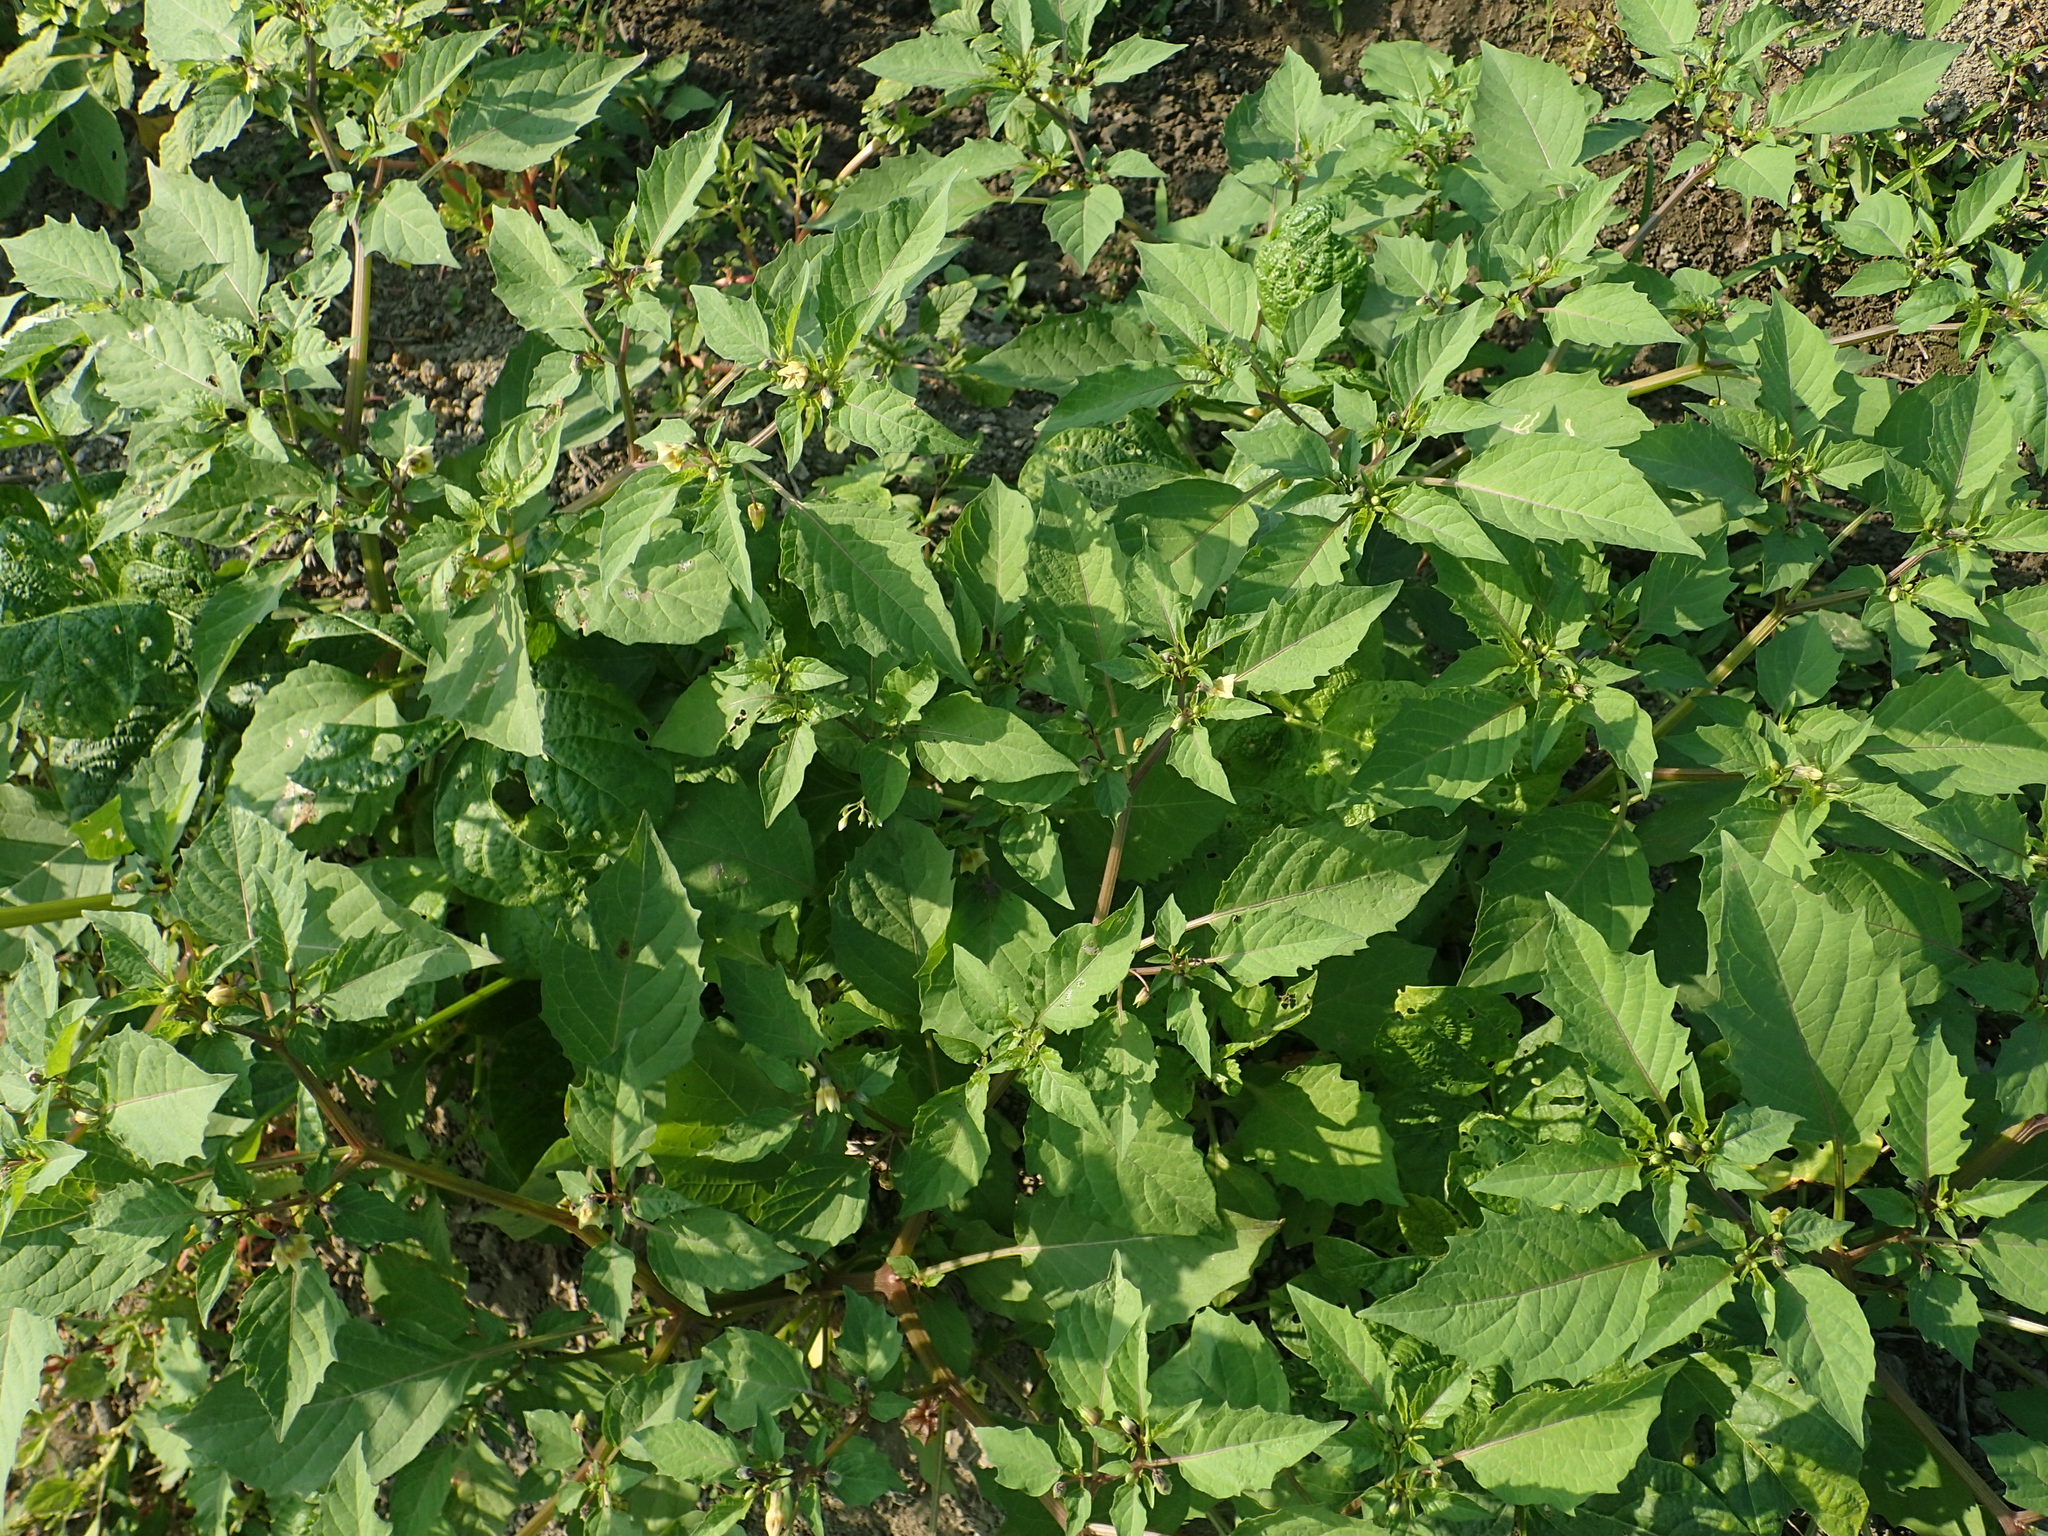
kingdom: Plantae
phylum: Tracheophyta
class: Magnoliopsida
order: Solanales
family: Solanaceae
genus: Physalis
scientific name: Physalis angulata
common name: Angular winter-cherry
